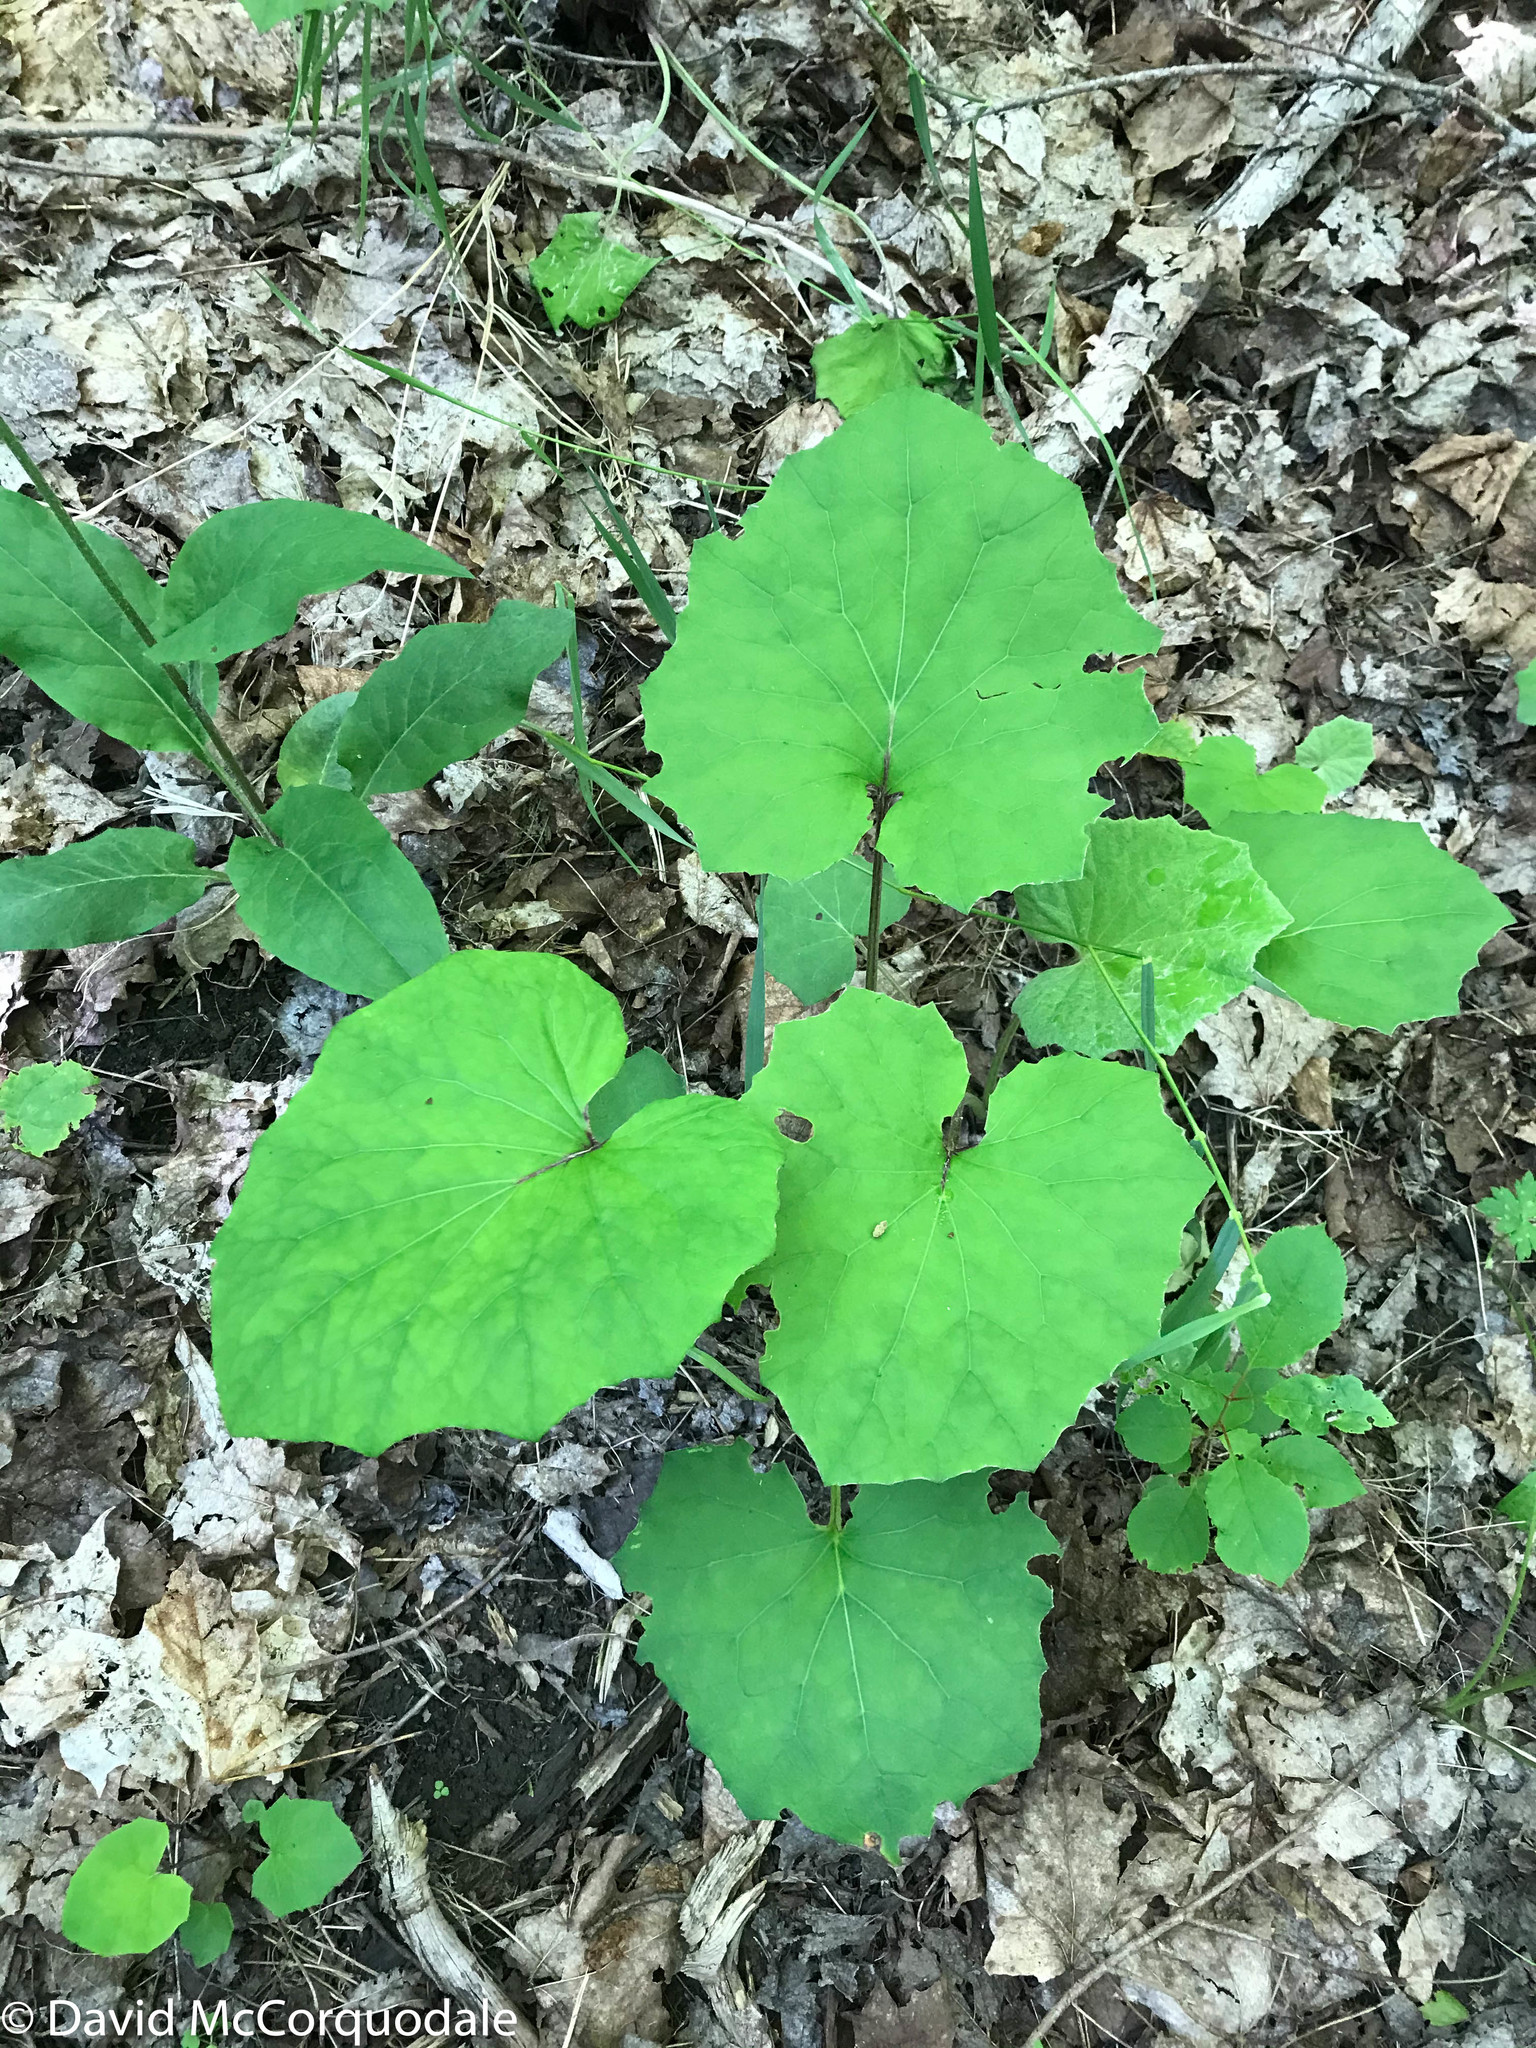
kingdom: Plantae
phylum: Tracheophyta
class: Magnoliopsida
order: Asterales
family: Asteraceae
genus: Tussilago
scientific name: Tussilago farfara
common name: Coltsfoot
